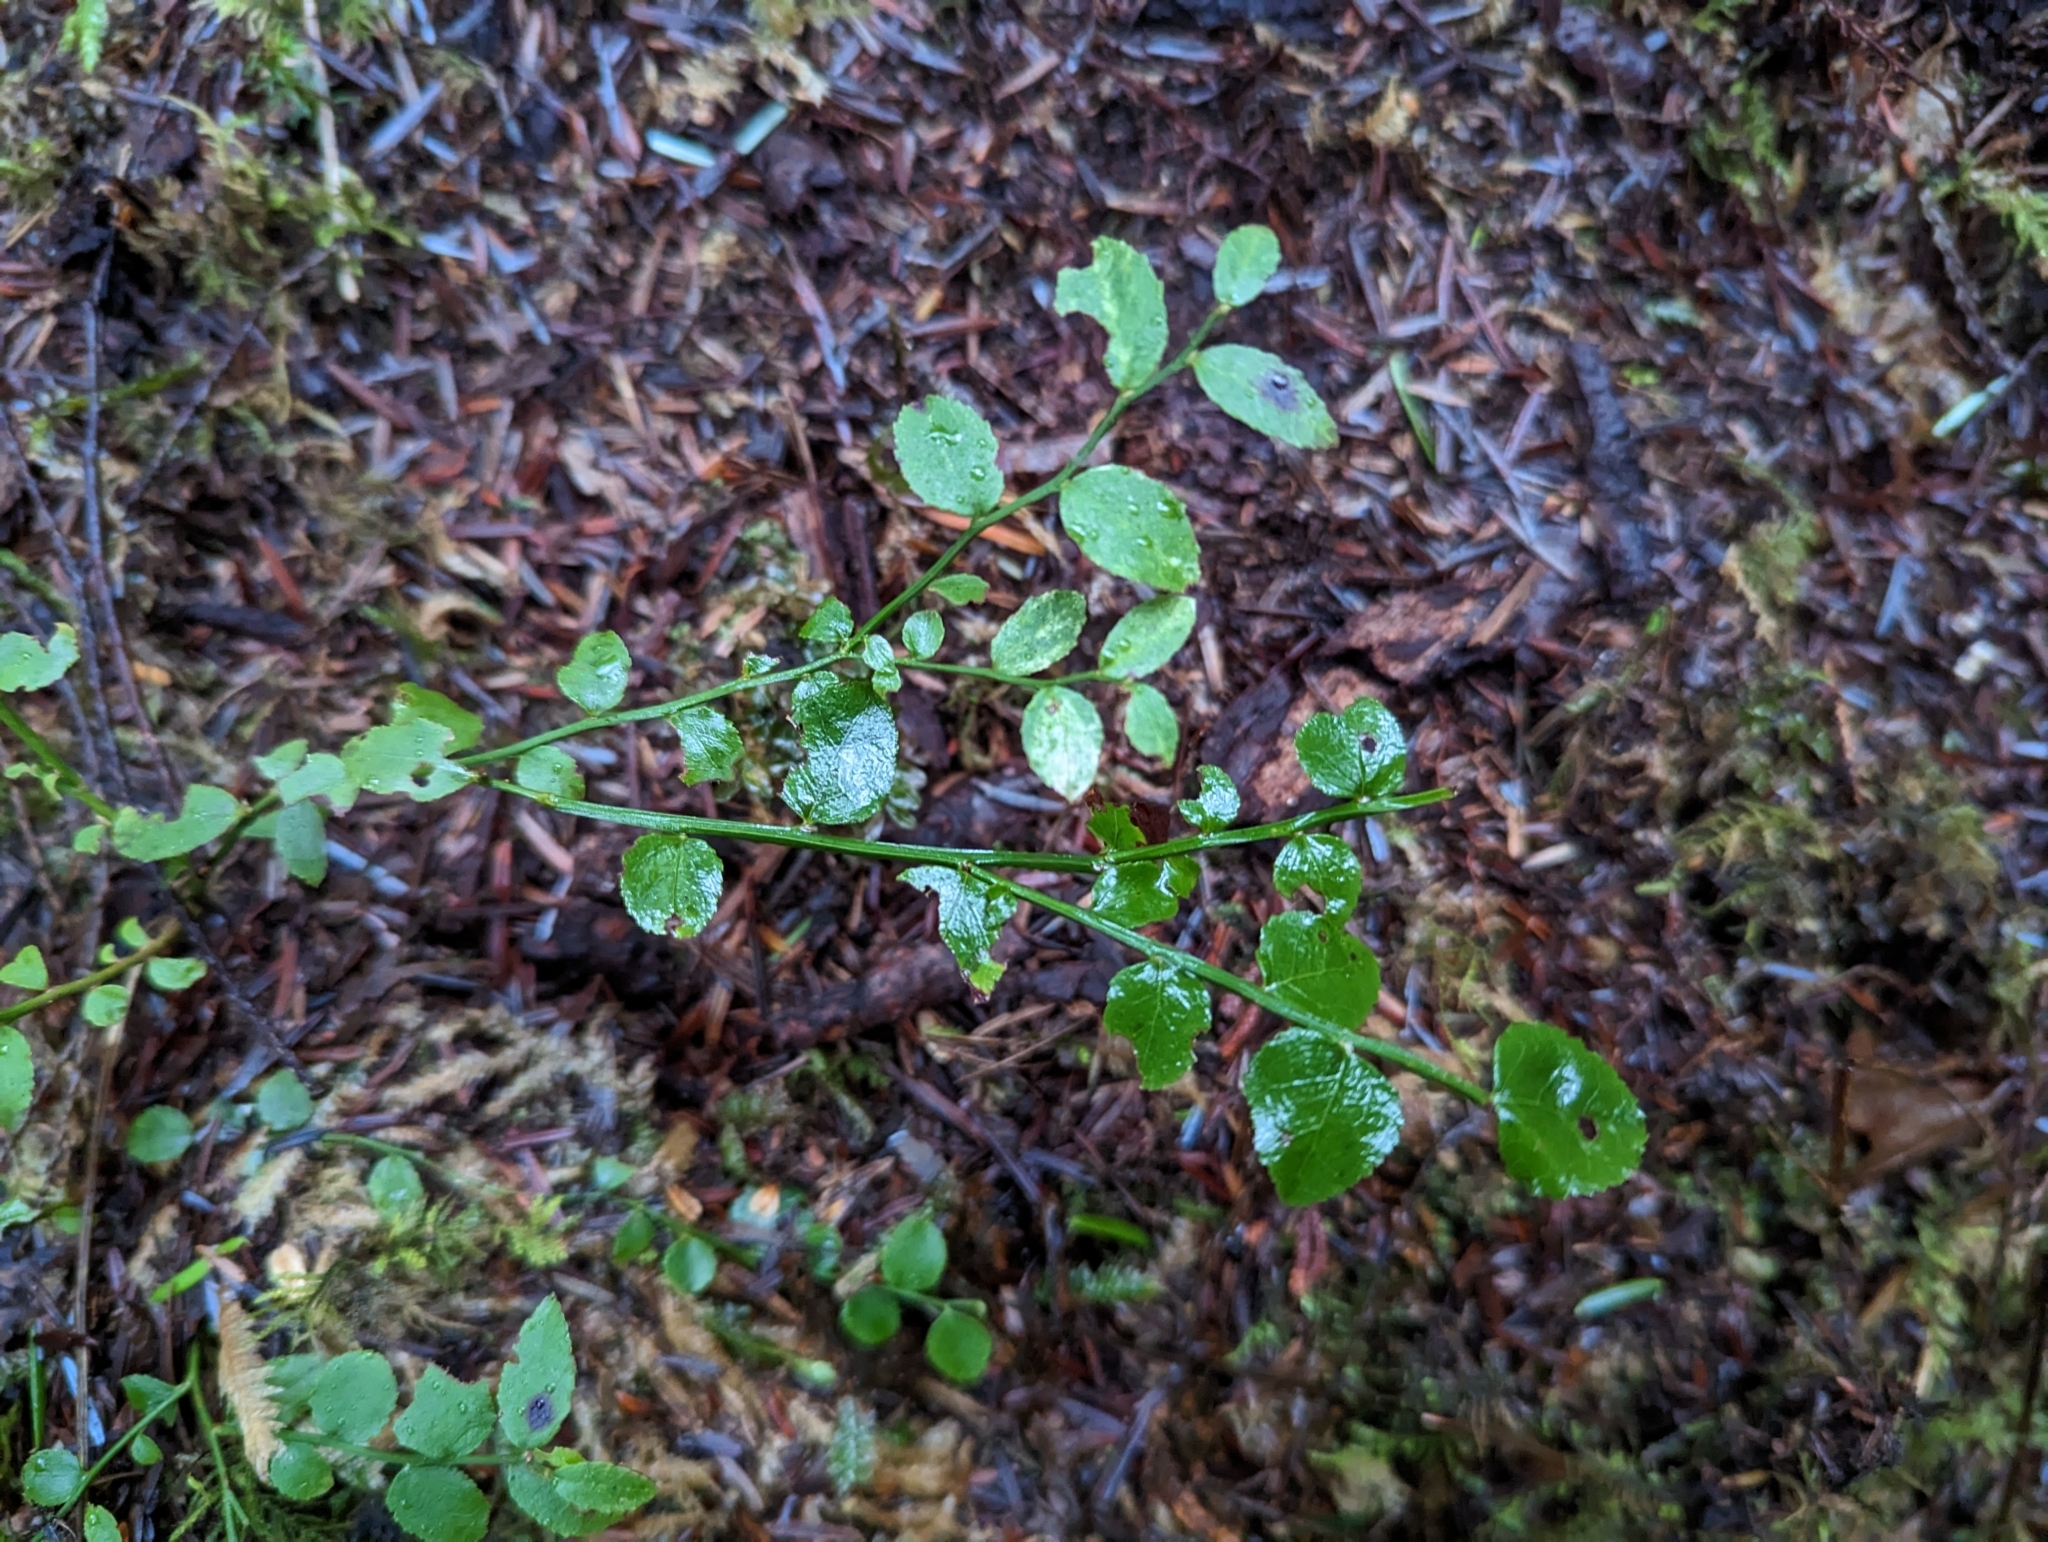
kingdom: Plantae
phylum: Tracheophyta
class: Magnoliopsida
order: Ericales
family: Ericaceae
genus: Vaccinium
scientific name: Vaccinium parvifolium
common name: Red-huckleberry
